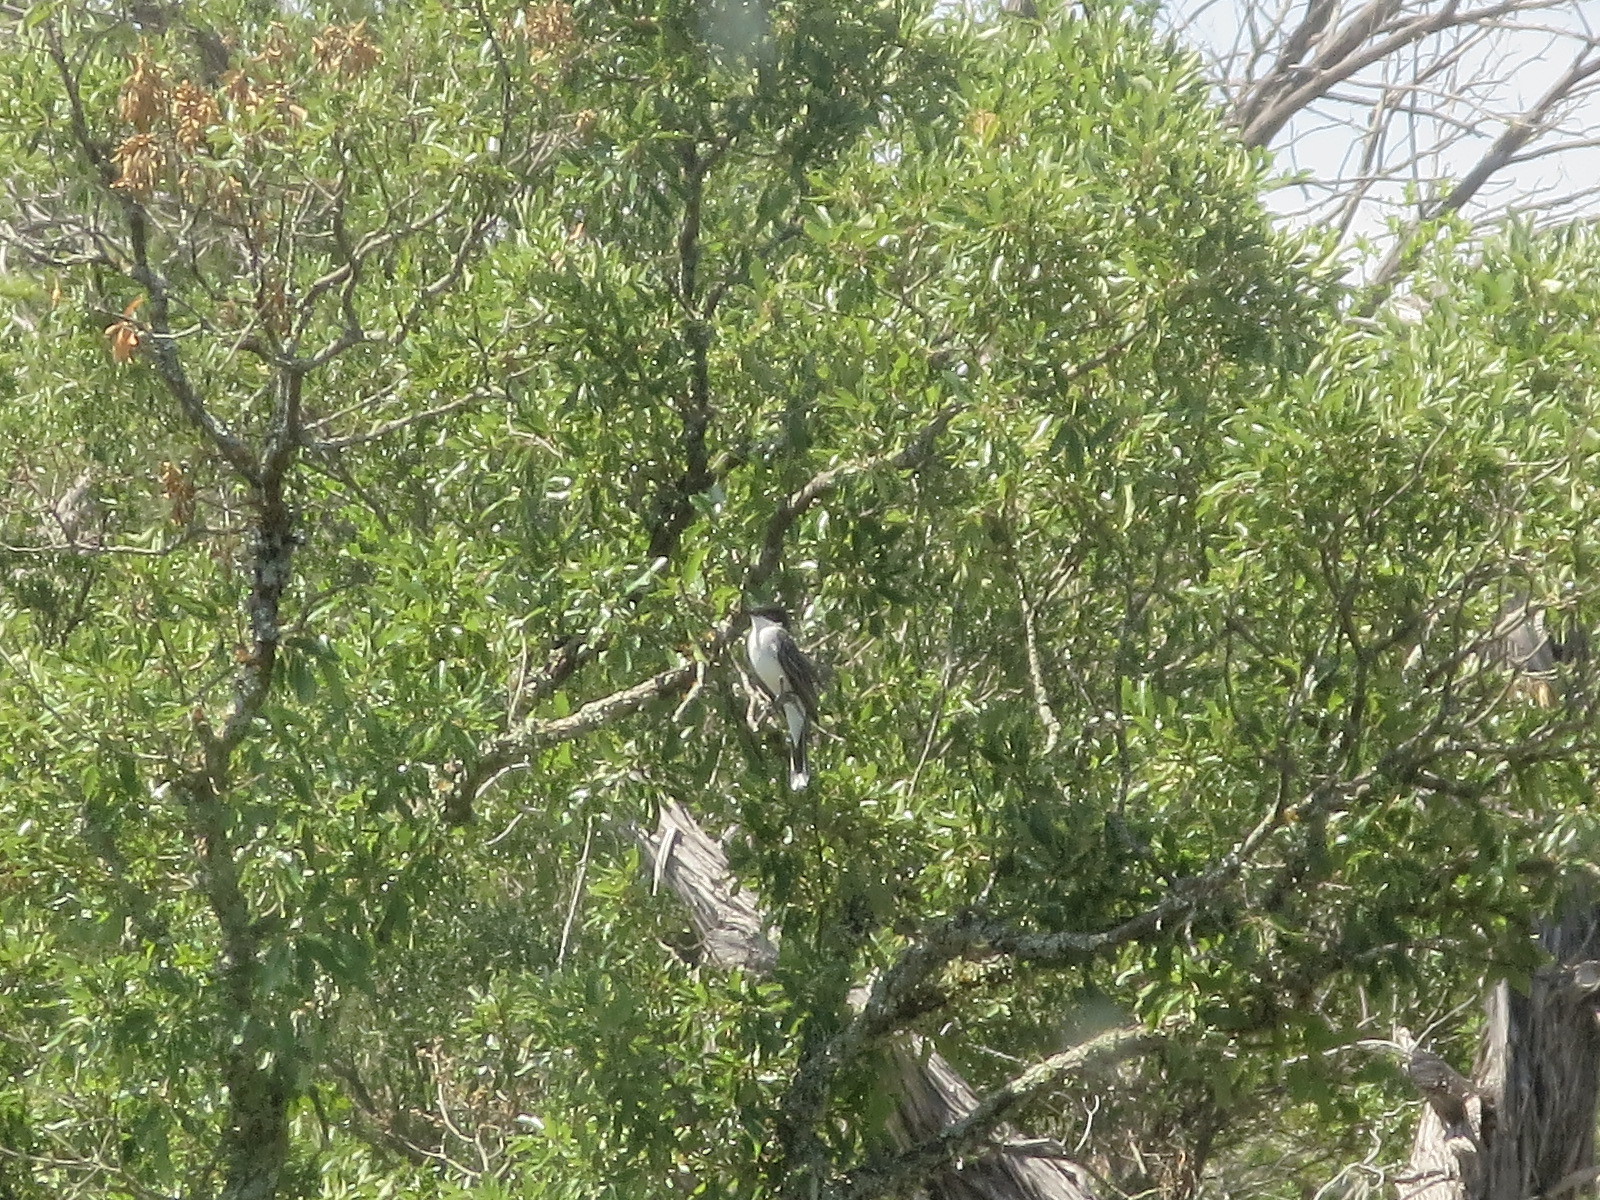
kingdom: Animalia
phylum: Chordata
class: Aves
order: Passeriformes
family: Tyrannidae
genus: Tyrannus
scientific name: Tyrannus tyrannus
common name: Eastern kingbird
